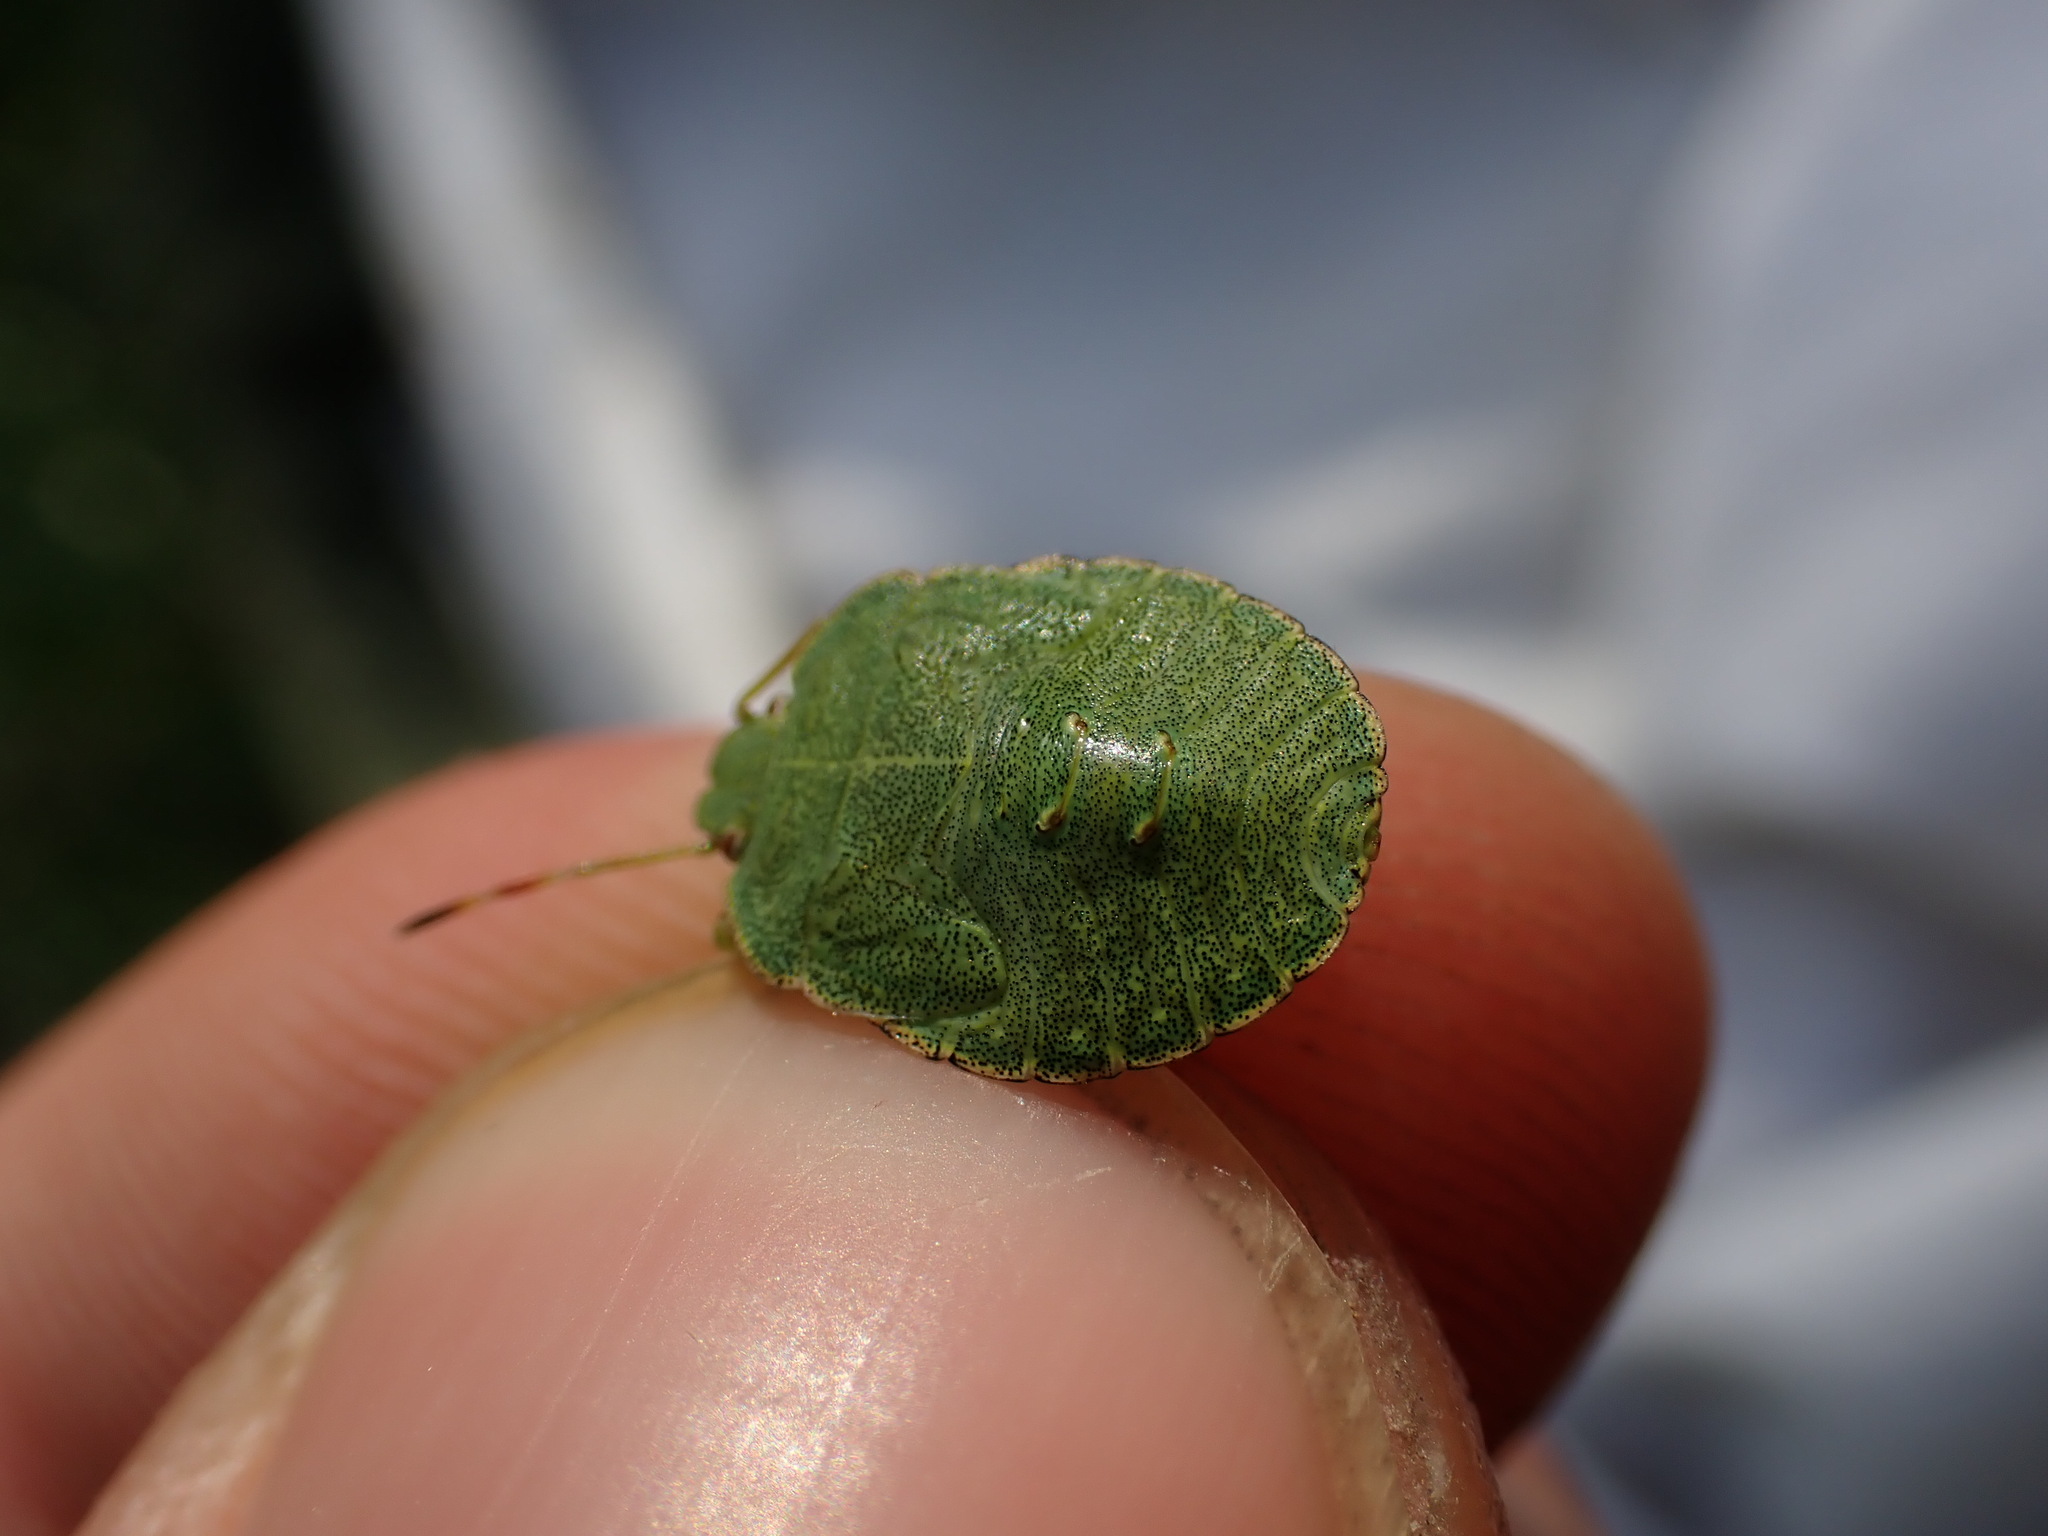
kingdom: Animalia
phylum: Arthropoda
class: Insecta
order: Hemiptera
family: Pentatomidae
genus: Palomena
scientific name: Palomena prasina
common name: Green shieldbug
